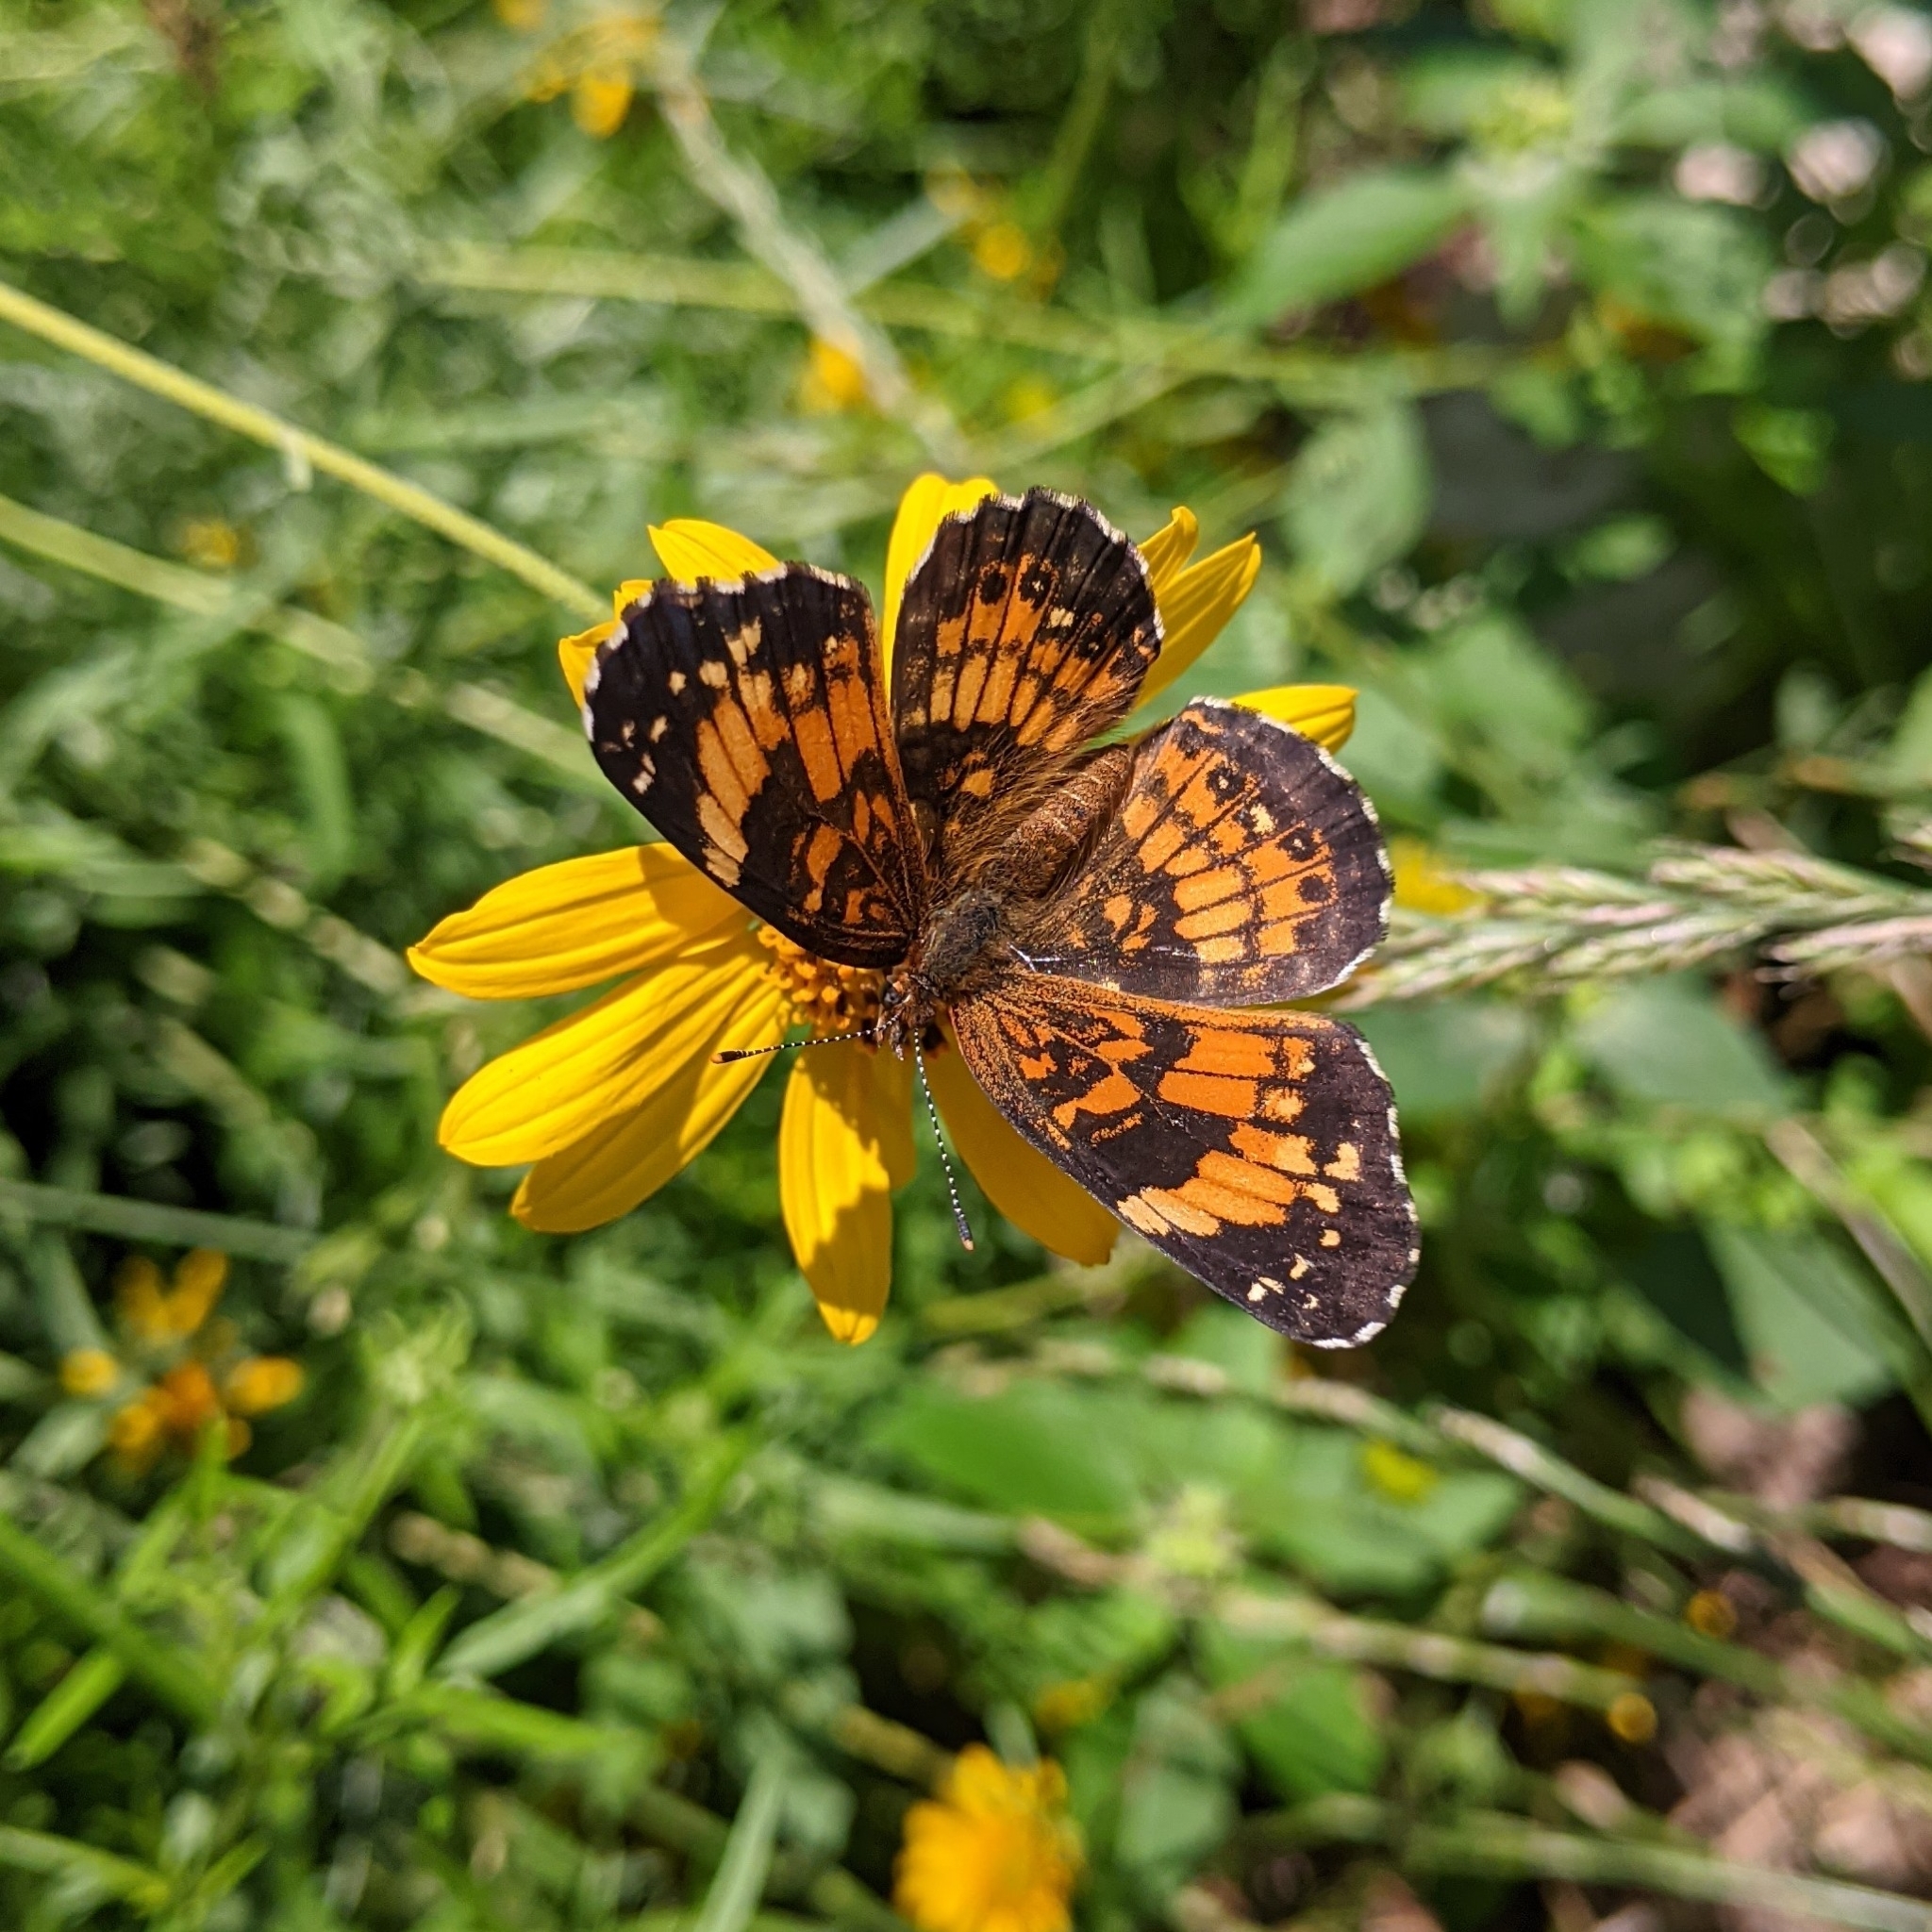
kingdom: Animalia
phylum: Arthropoda
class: Insecta
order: Lepidoptera
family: Nymphalidae
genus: Chlosyne
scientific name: Chlosyne nycteis
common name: Silvery checkerspot
